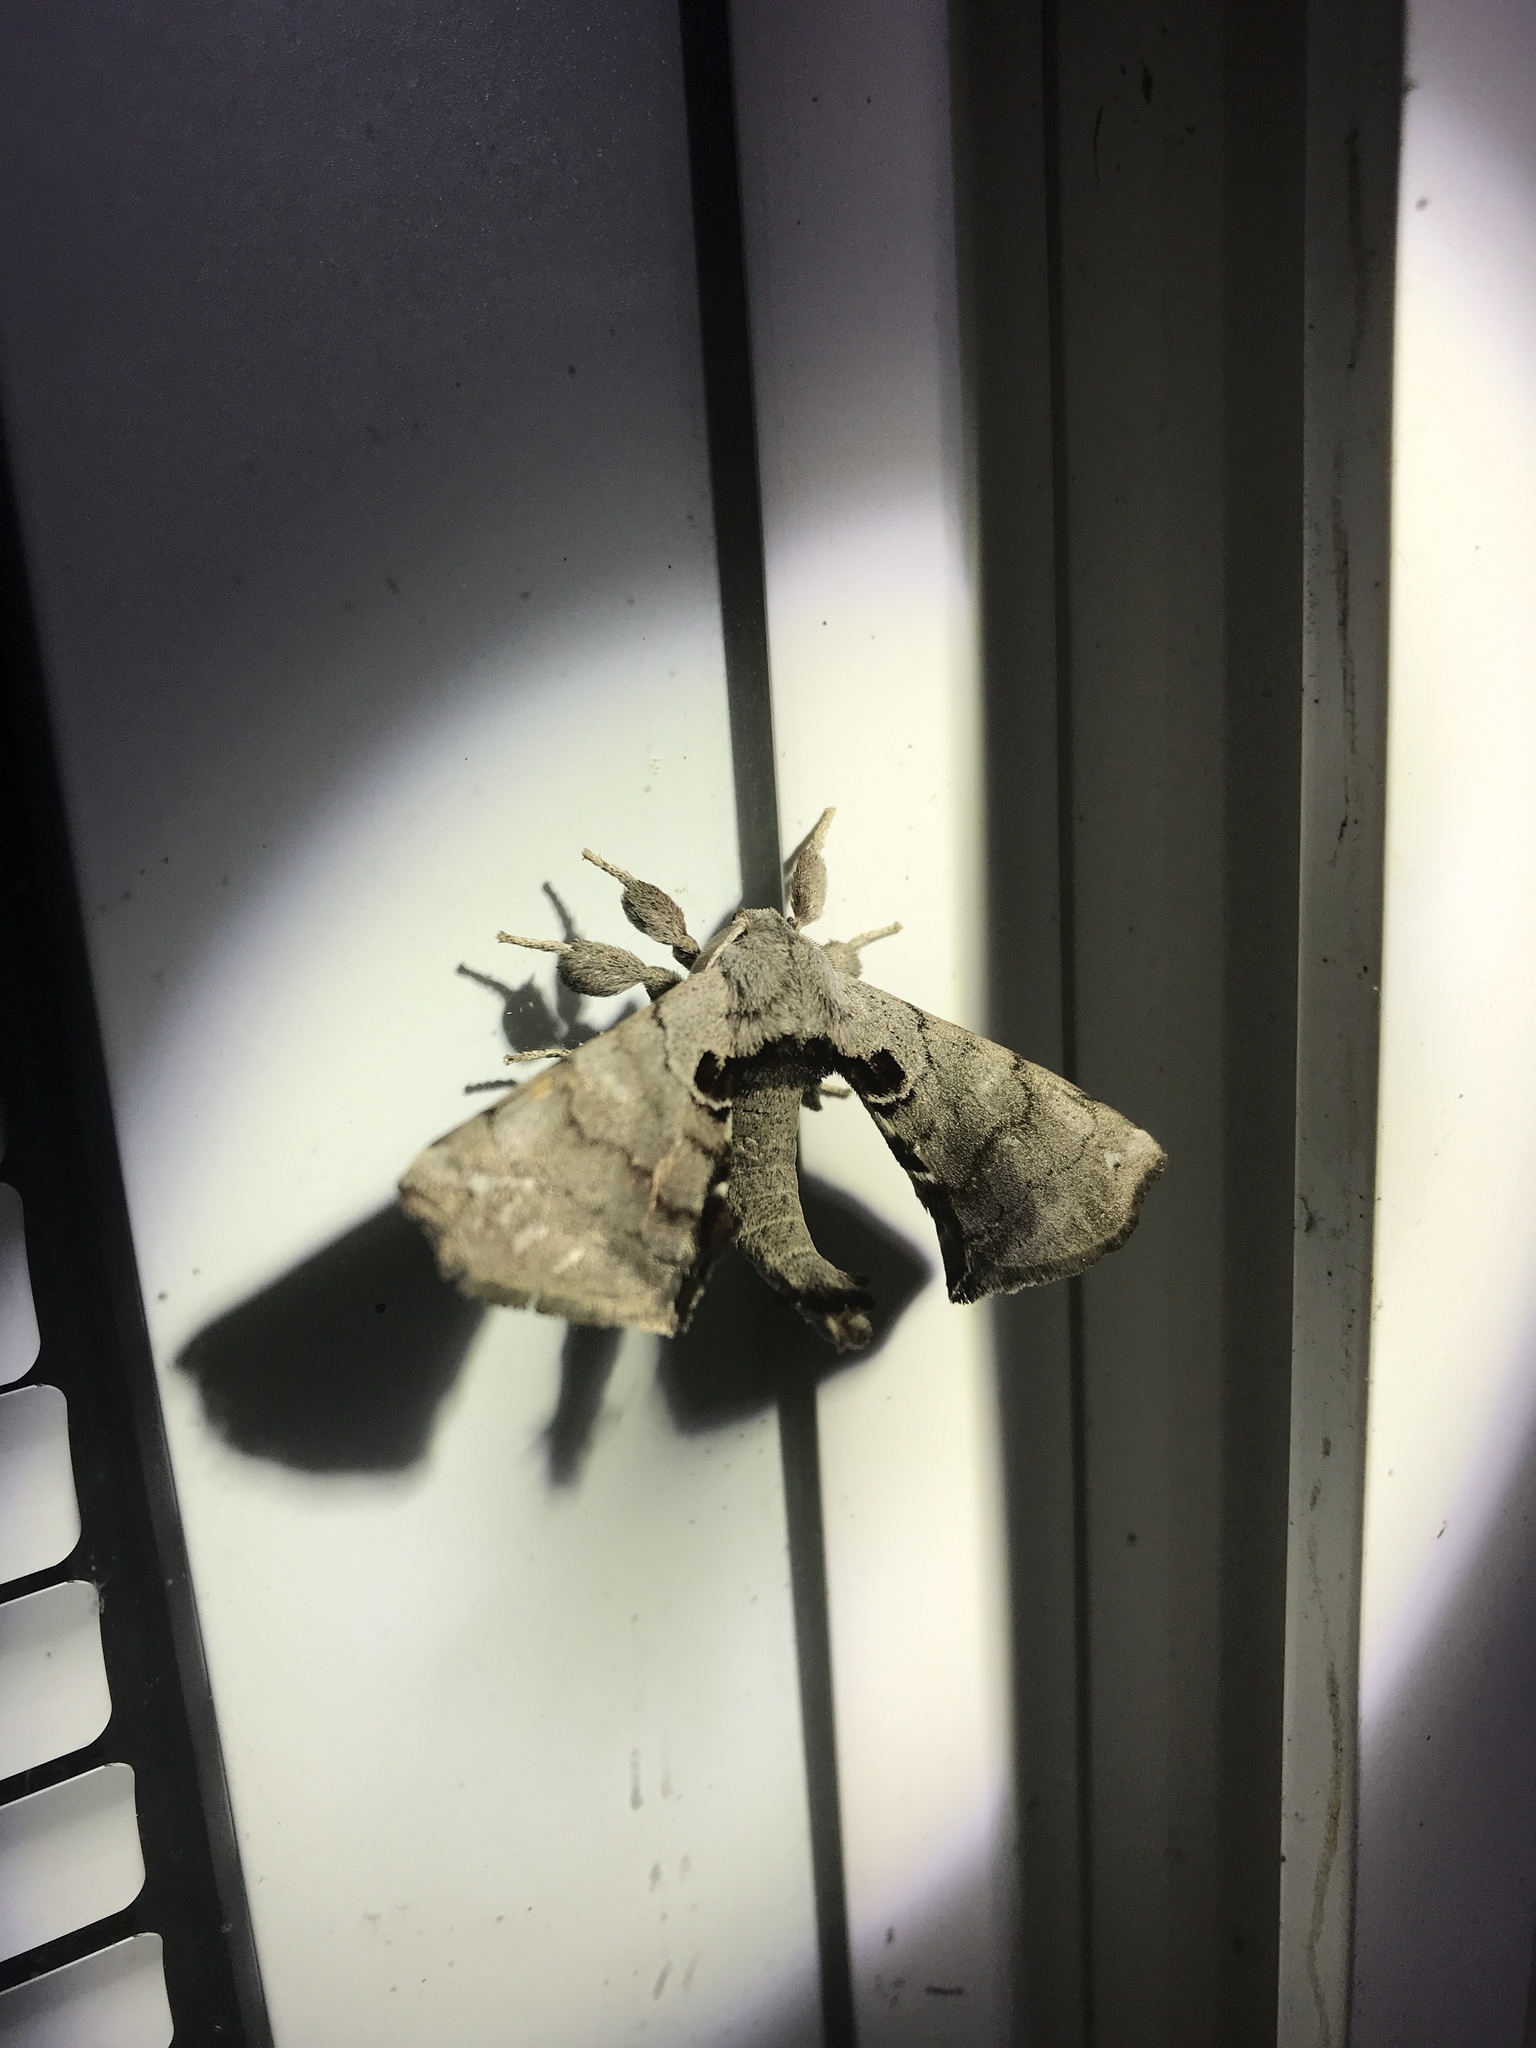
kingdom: Animalia
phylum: Arthropoda
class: Insecta
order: Lepidoptera
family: Apatelodidae
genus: Hygrochroa
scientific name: Hygrochroa Apatelodes torrefacta
